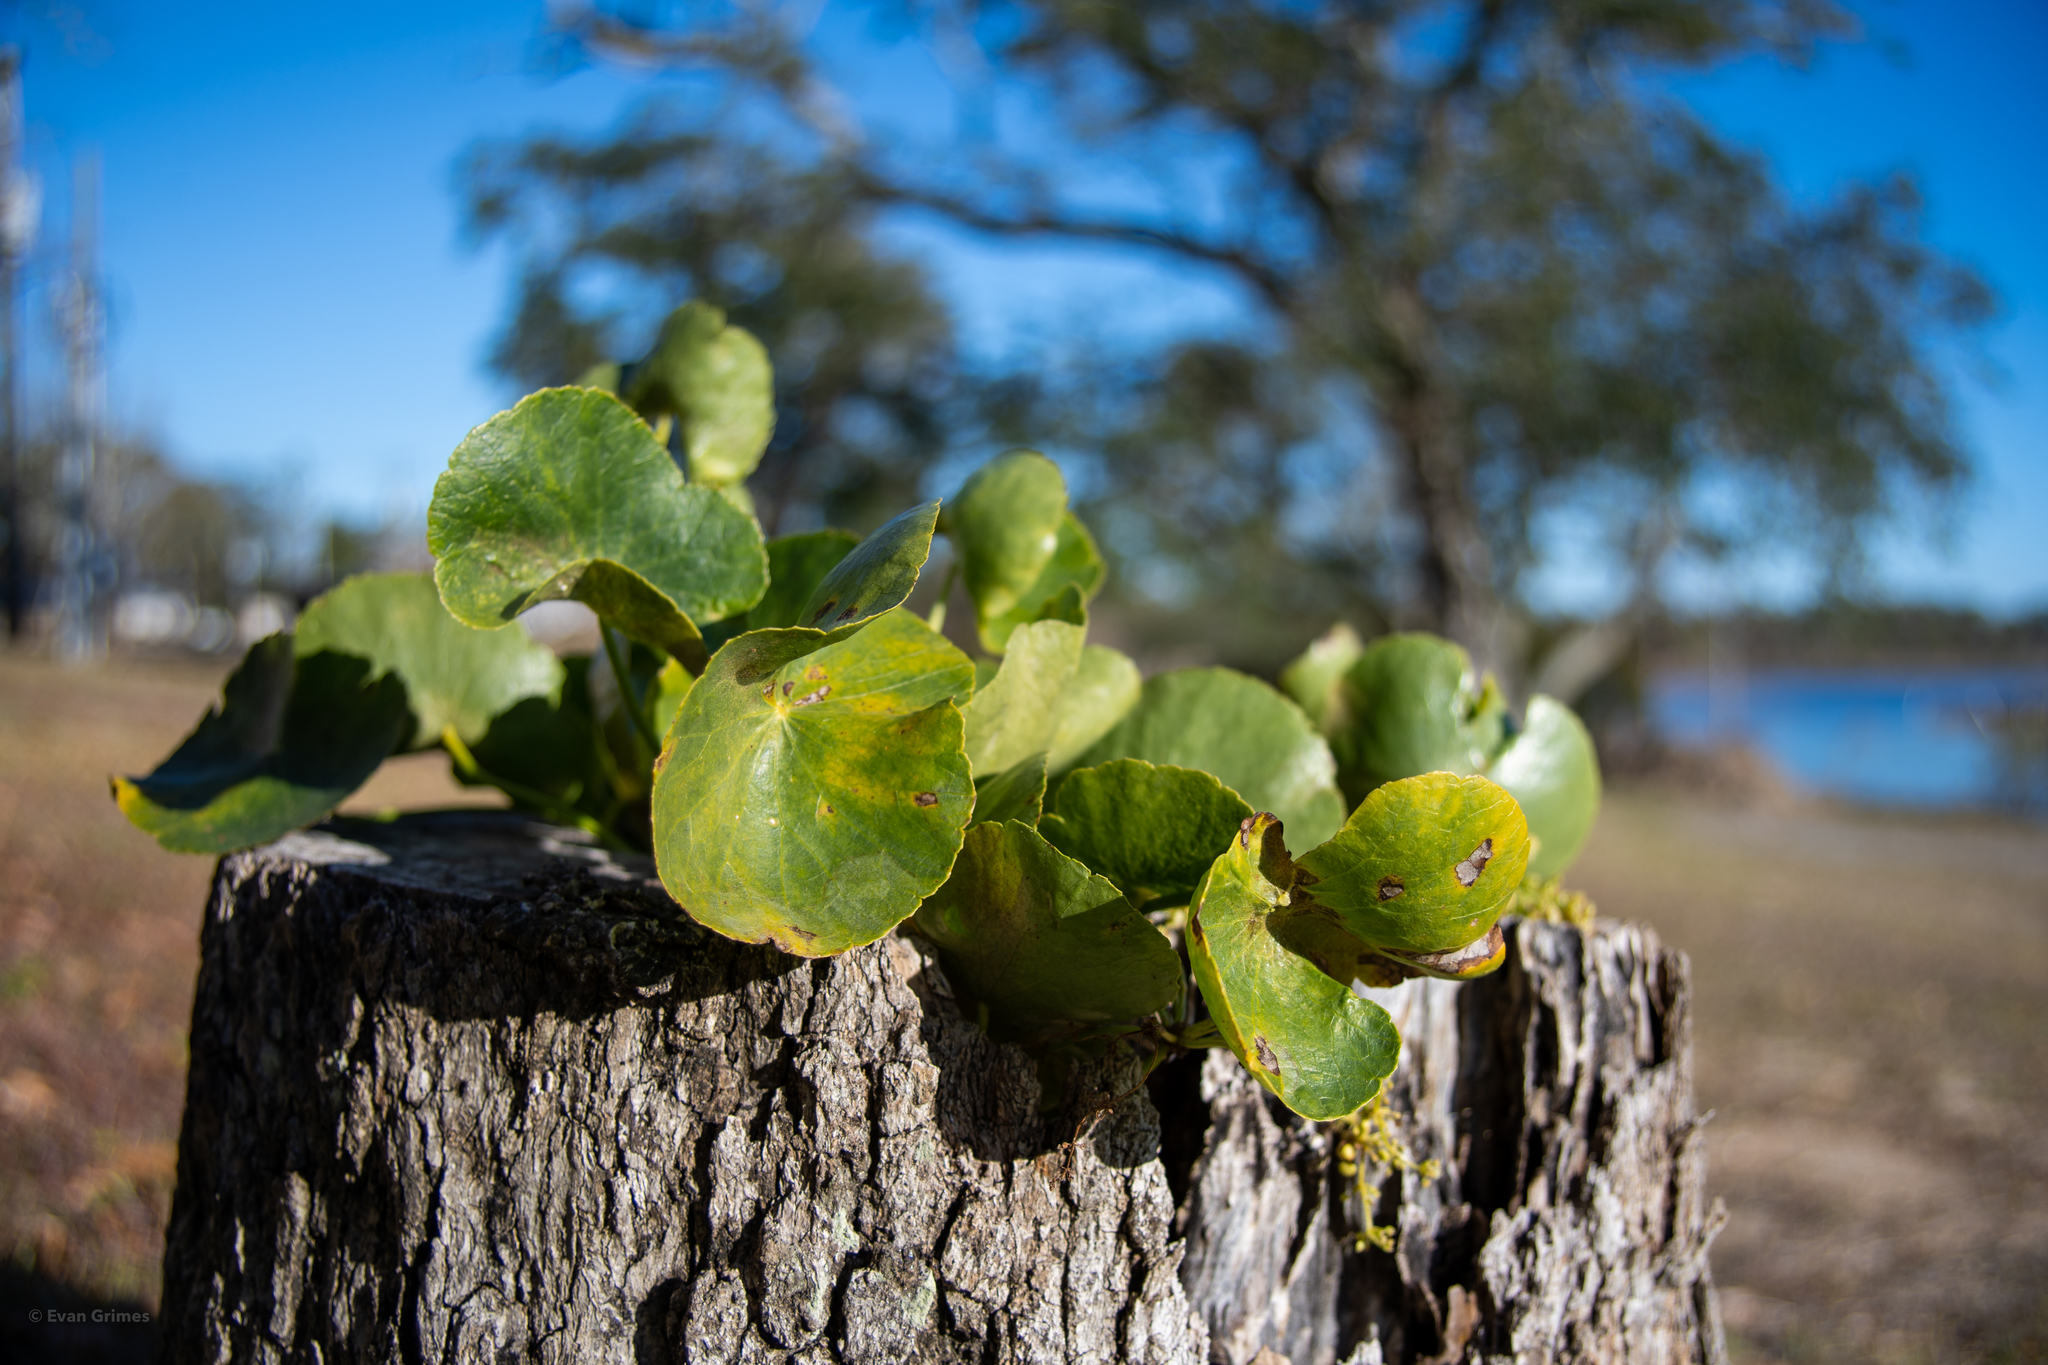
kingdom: Plantae
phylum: Tracheophyta
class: Magnoliopsida
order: Apiales
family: Araliaceae
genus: Hydrocotyle
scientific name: Hydrocotyle bonariensis
